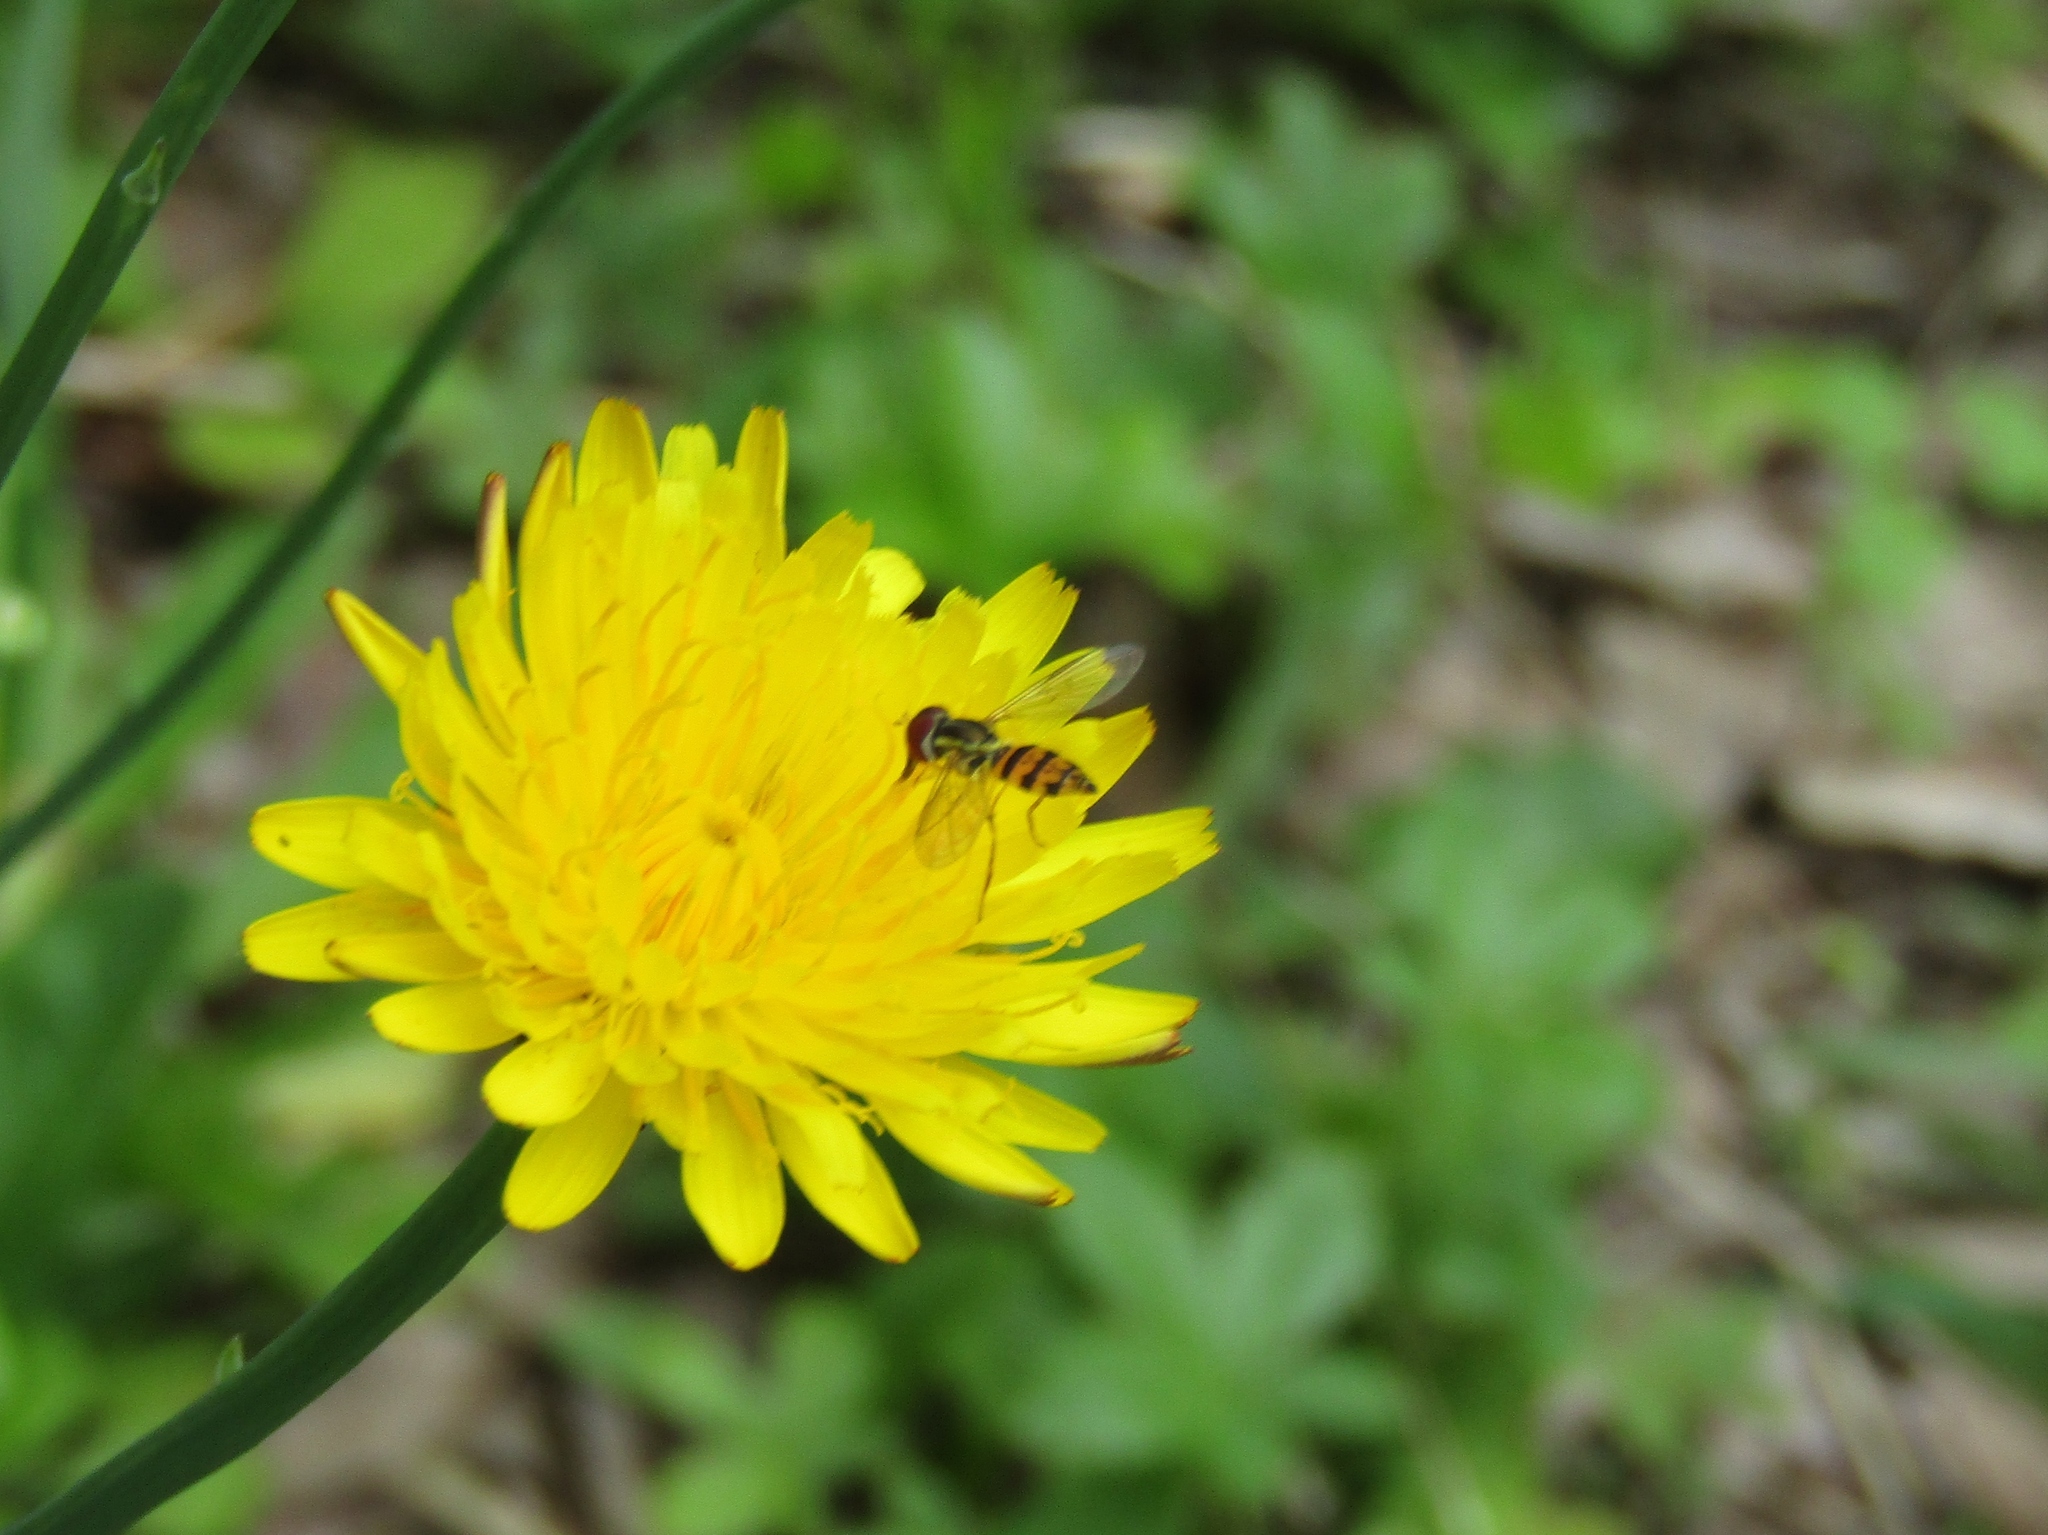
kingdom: Animalia
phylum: Arthropoda
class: Insecta
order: Diptera
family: Syrphidae
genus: Toxomerus
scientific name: Toxomerus geminatus
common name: Eastern calligrapher
